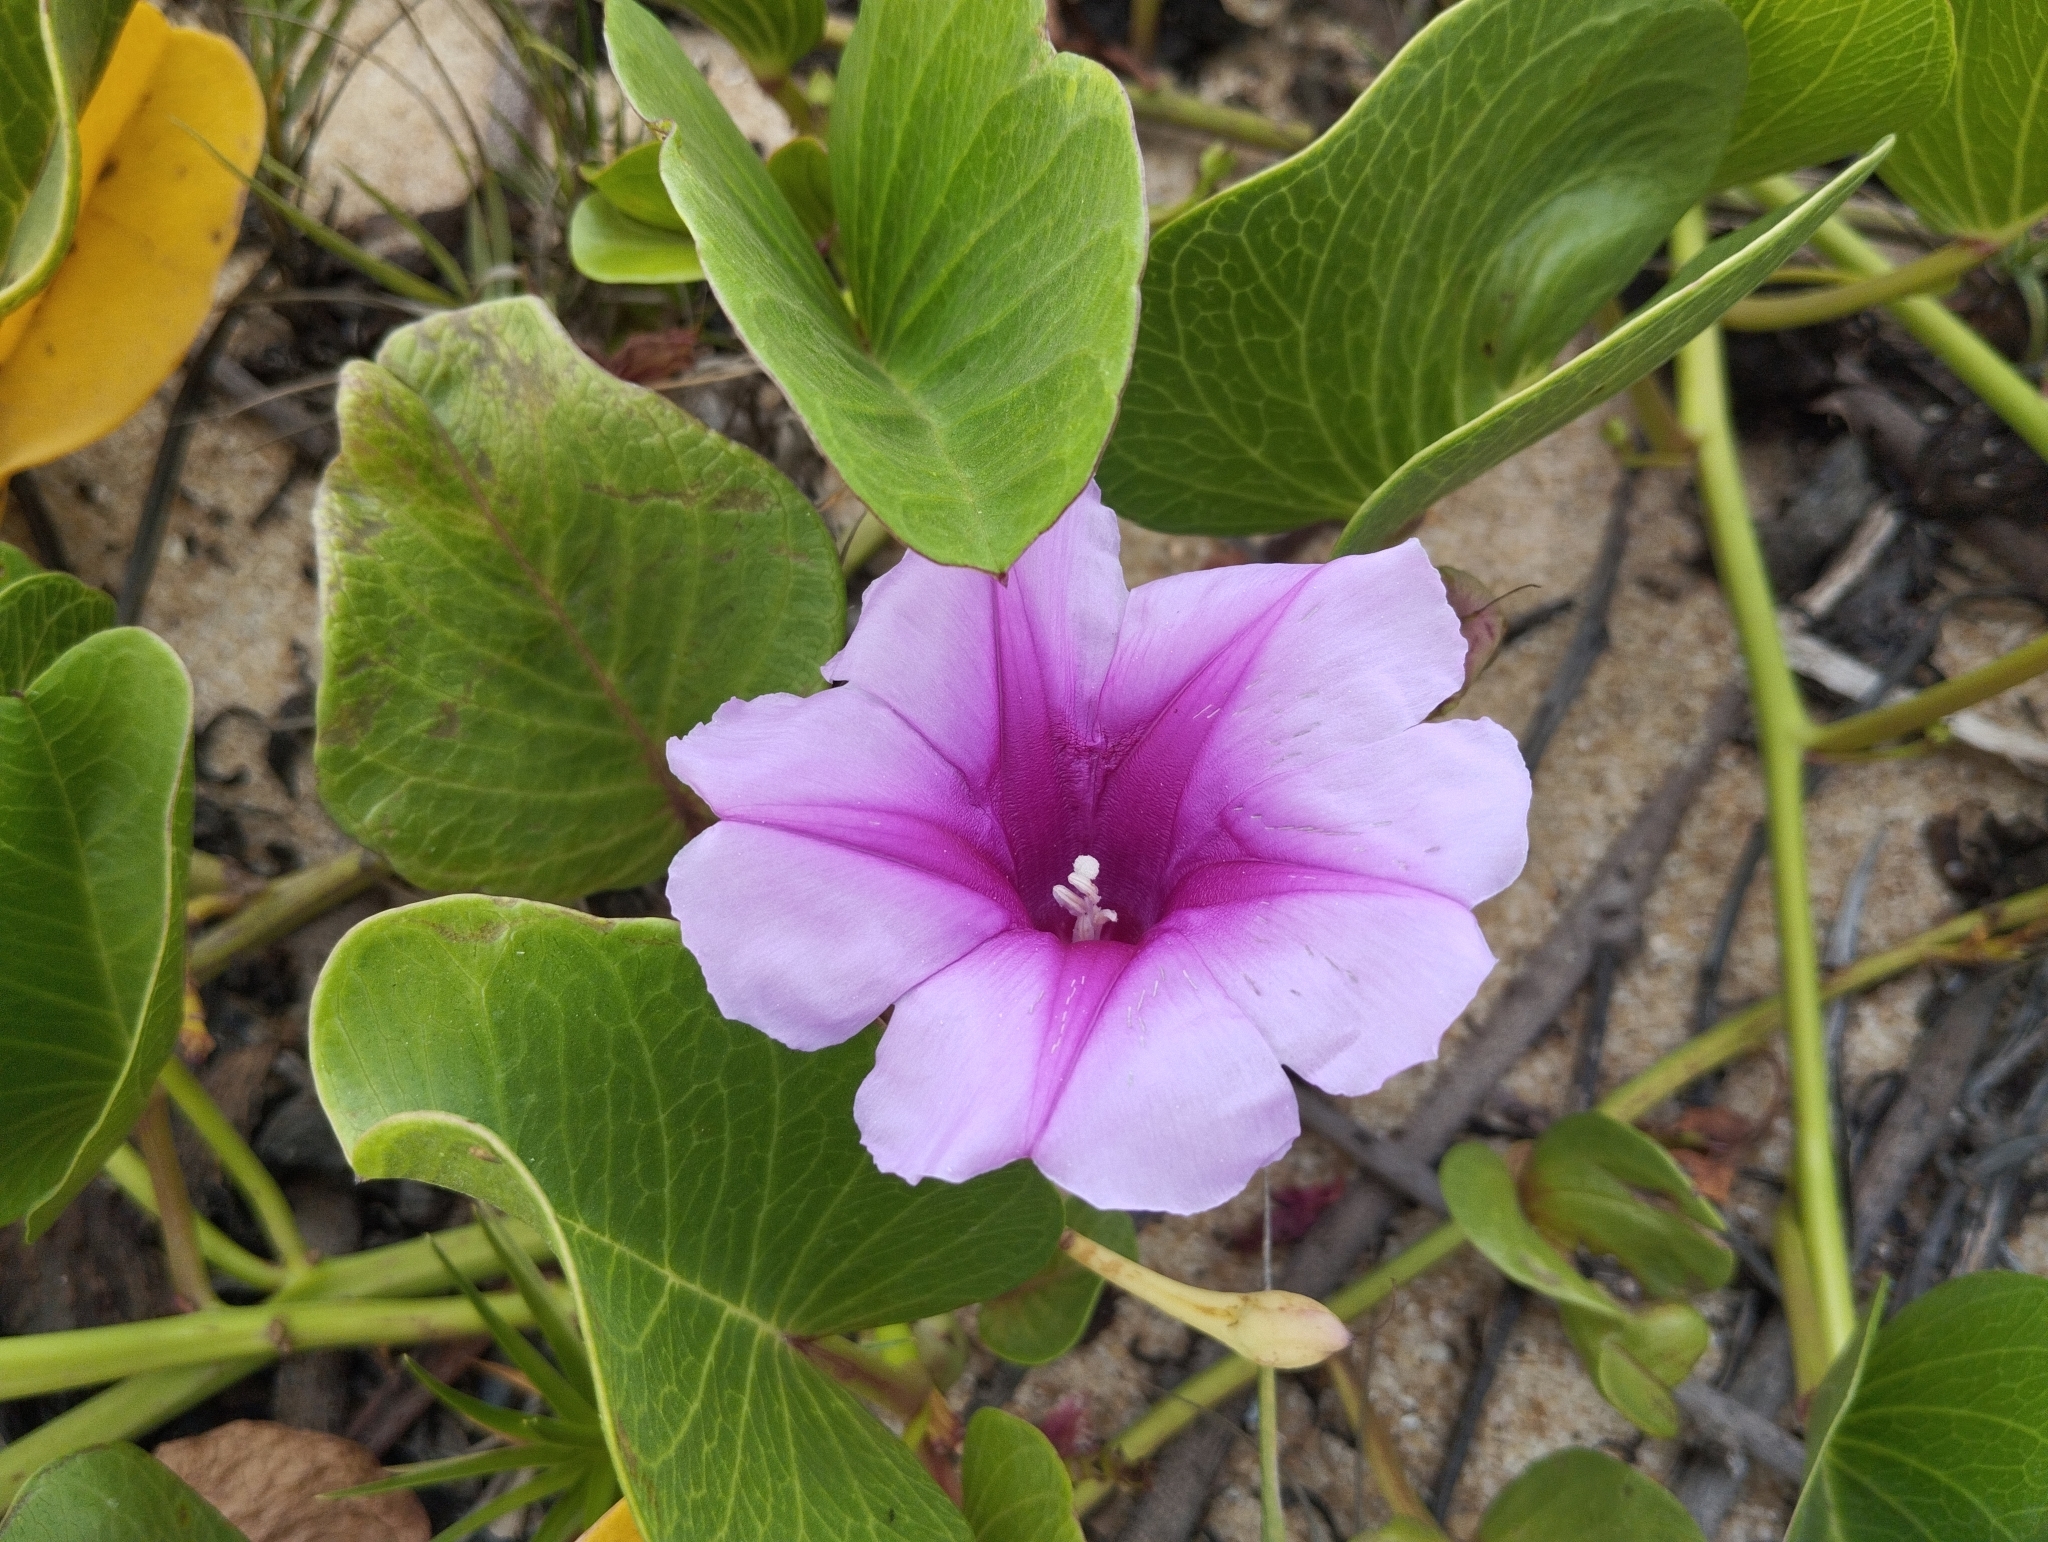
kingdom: Plantae
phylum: Tracheophyta
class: Magnoliopsida
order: Solanales
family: Convolvulaceae
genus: Ipomoea
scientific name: Ipomoea pes-caprae
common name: Beach morning glory
